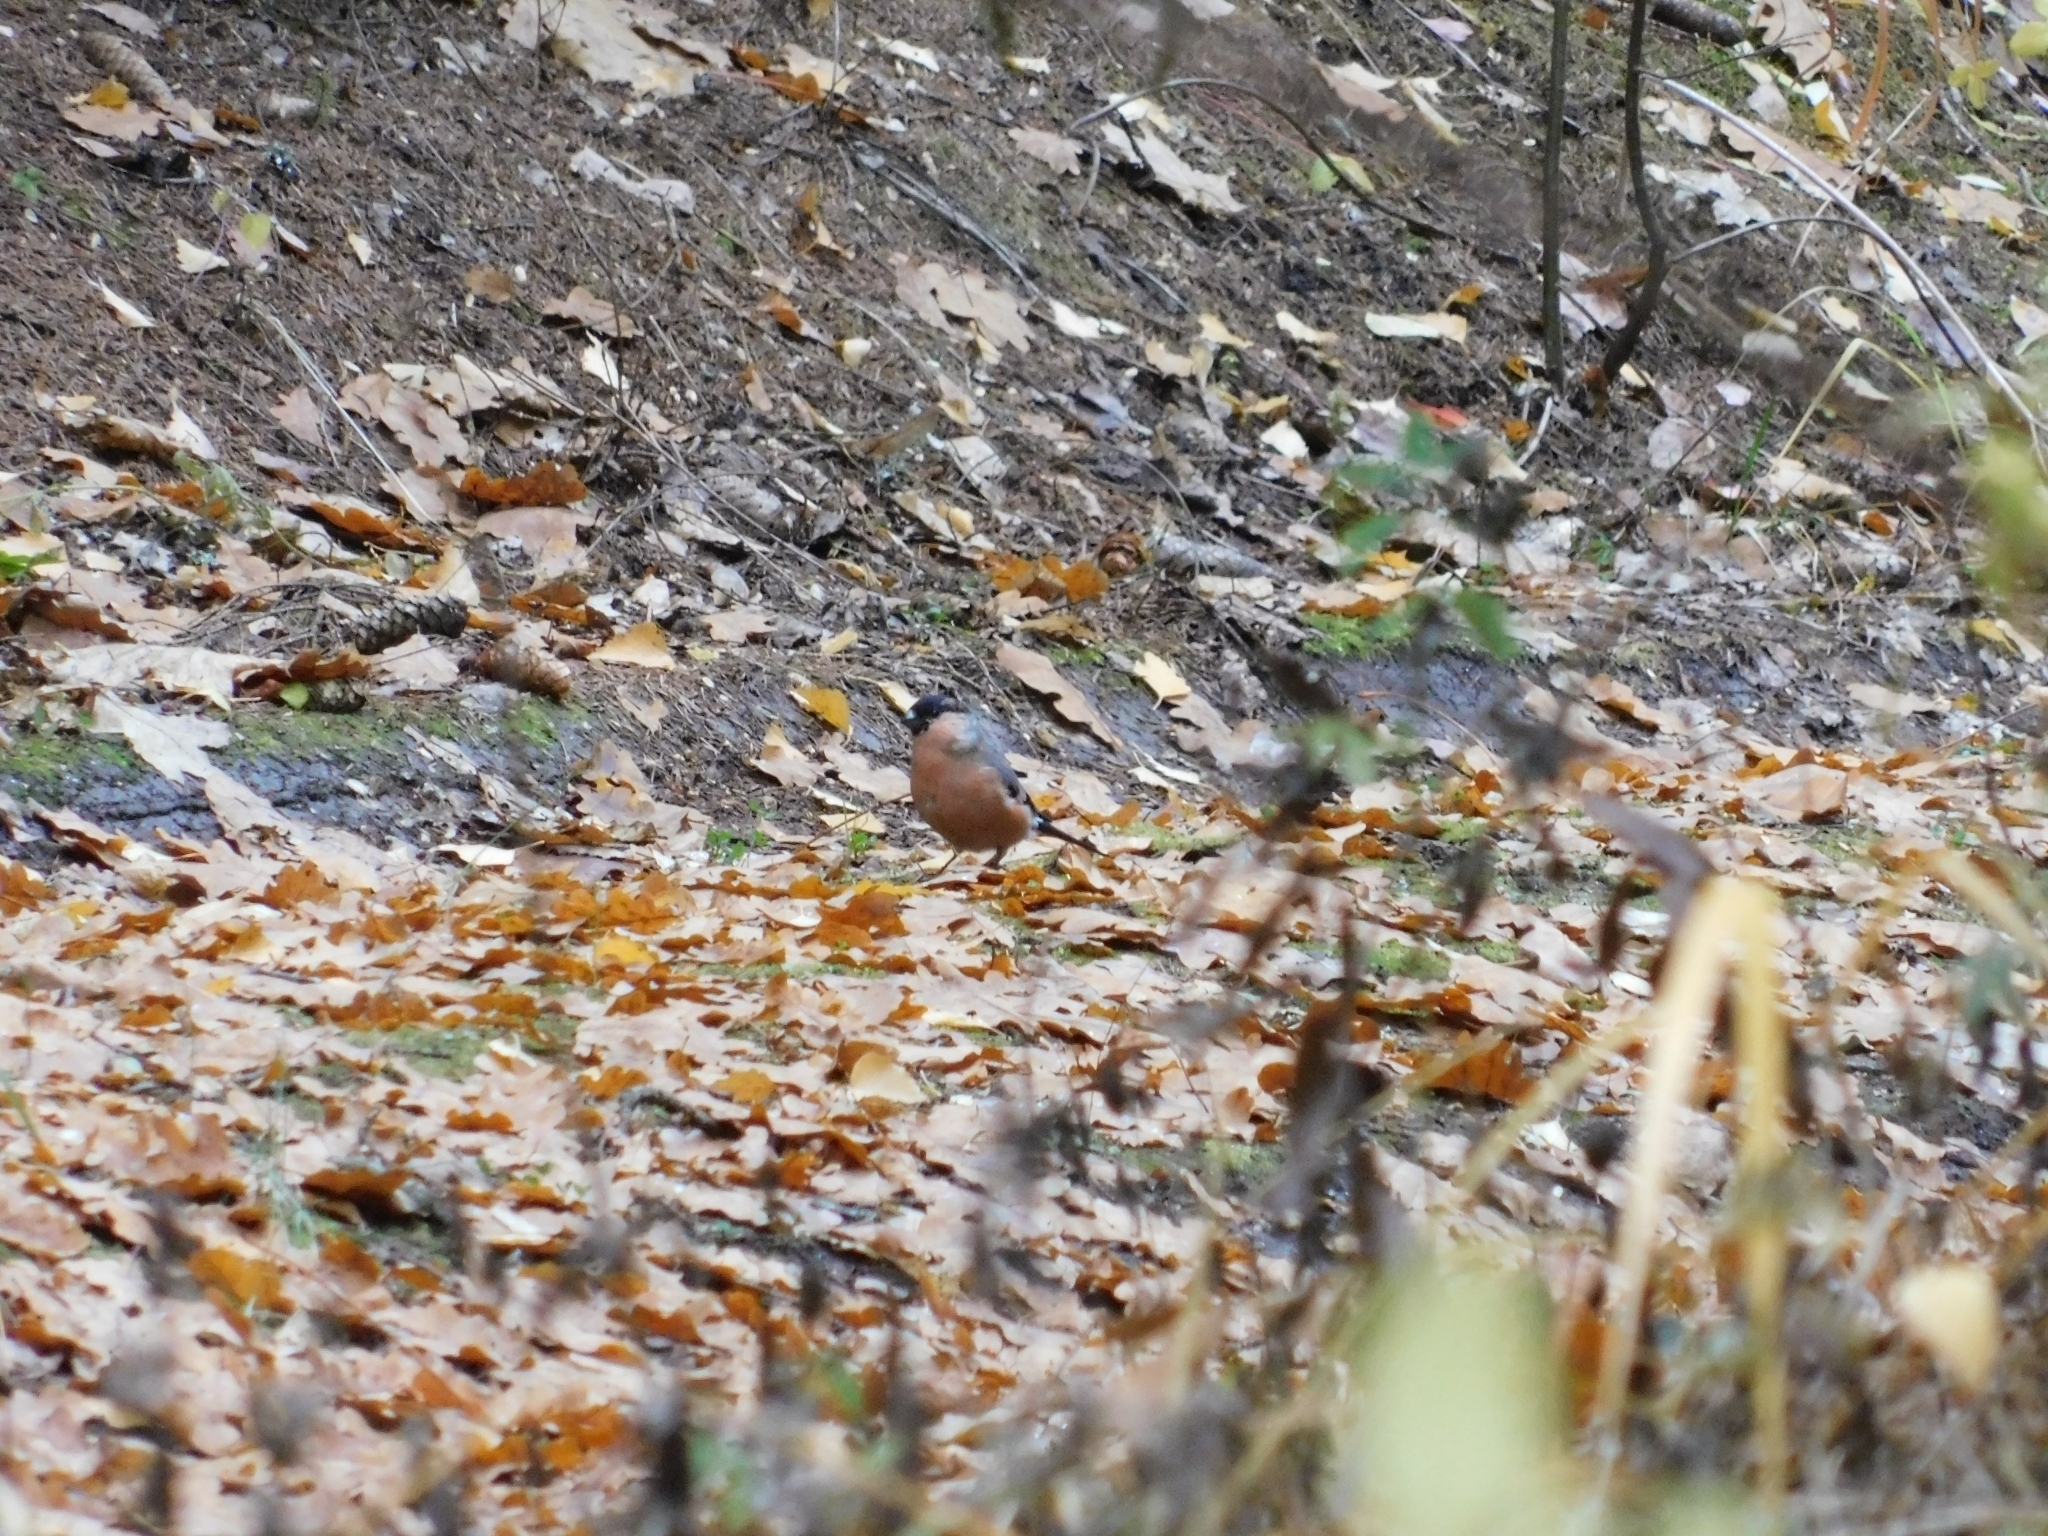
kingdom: Animalia
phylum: Chordata
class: Aves
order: Passeriformes
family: Fringillidae
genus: Pyrrhula
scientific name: Pyrrhula pyrrhula
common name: Eurasian bullfinch
